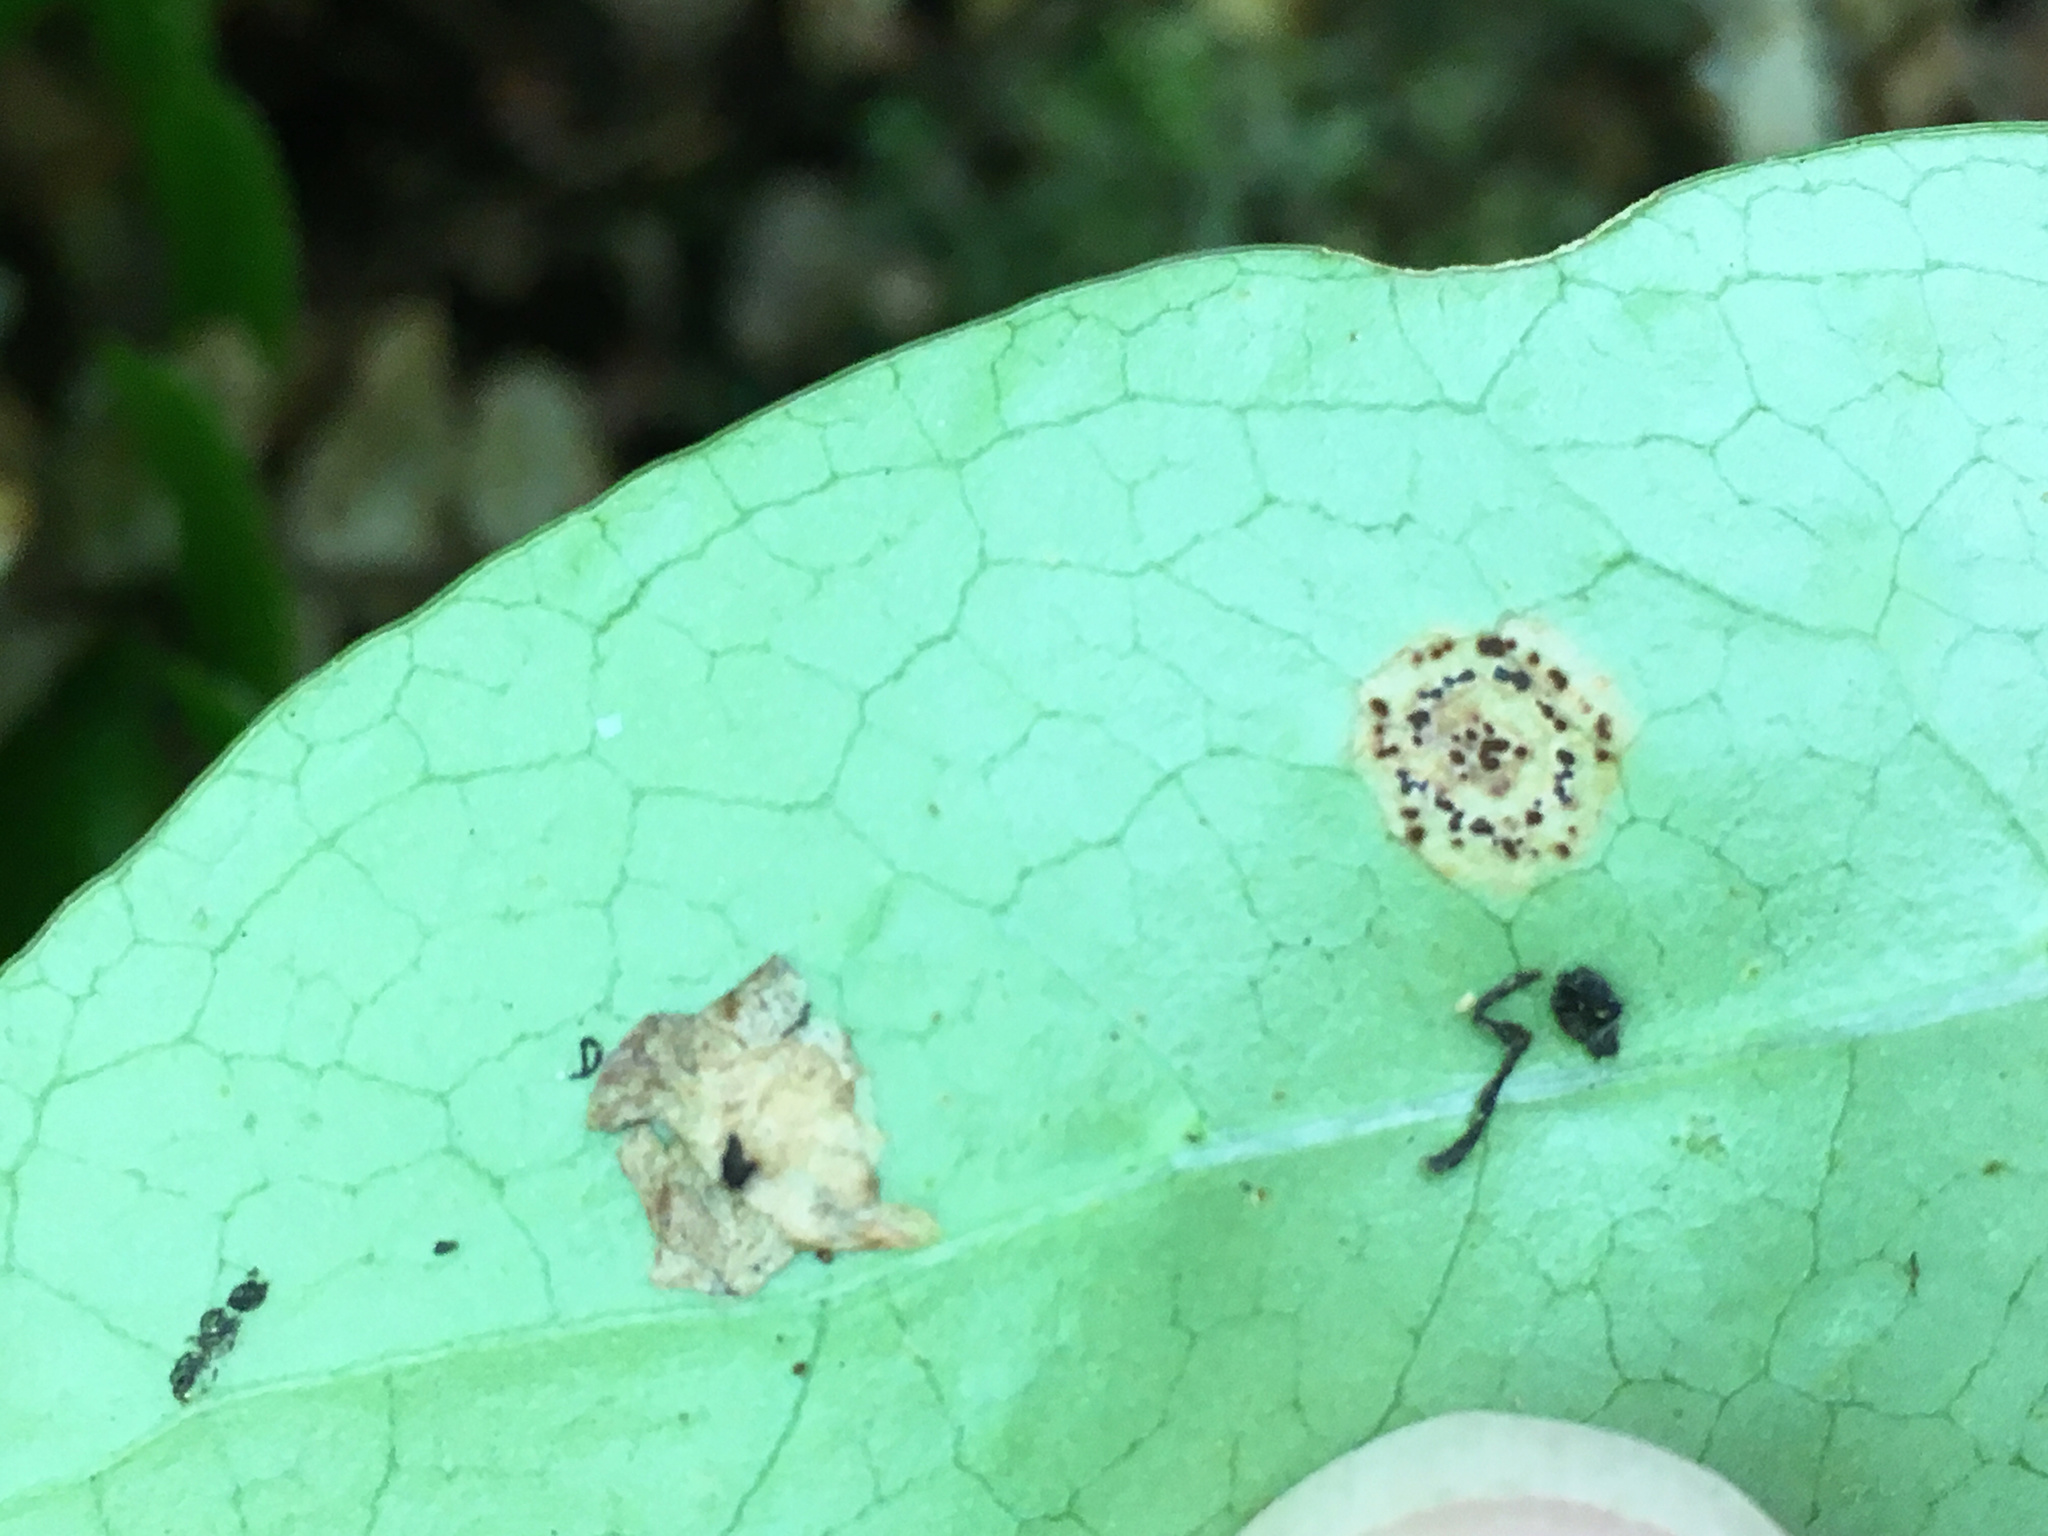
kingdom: Fungi
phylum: Basidiomycota
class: Pucciniomycetes
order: Pucciniales
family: Pucciniaceae
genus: Puccinia
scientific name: Puccinia coprosmae
